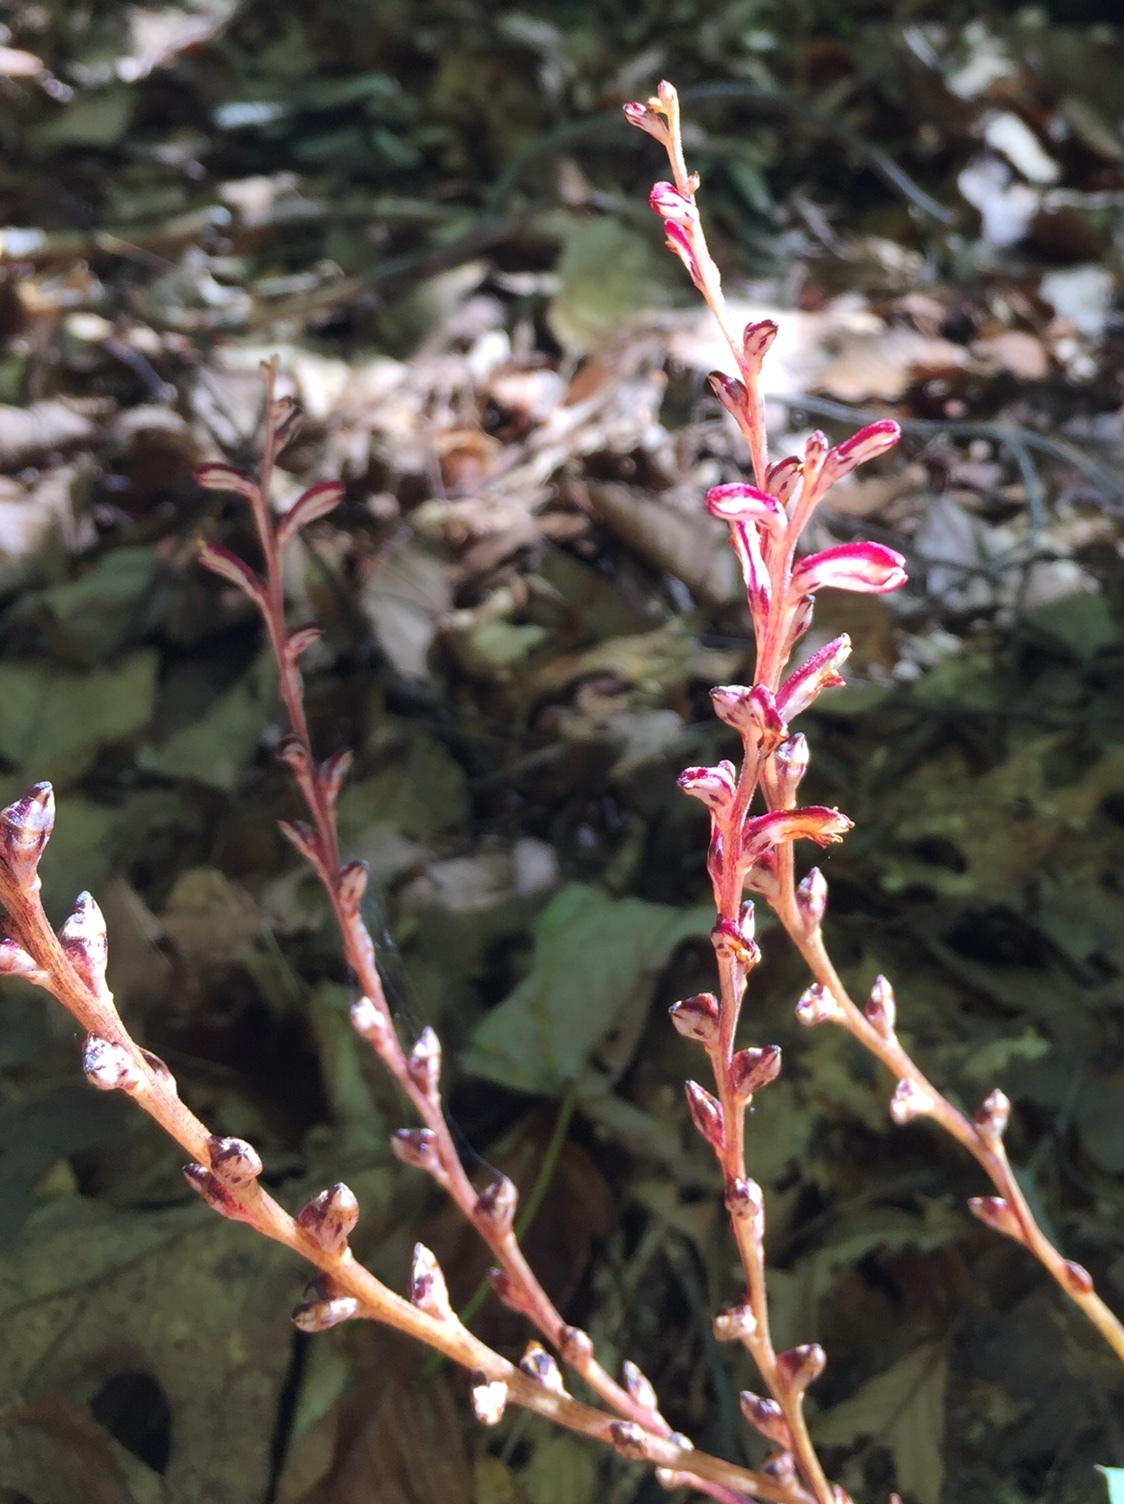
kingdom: Plantae
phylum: Tracheophyta
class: Magnoliopsida
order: Lamiales
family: Orobanchaceae
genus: Epifagus
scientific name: Epifagus virginiana
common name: Beechdrops
